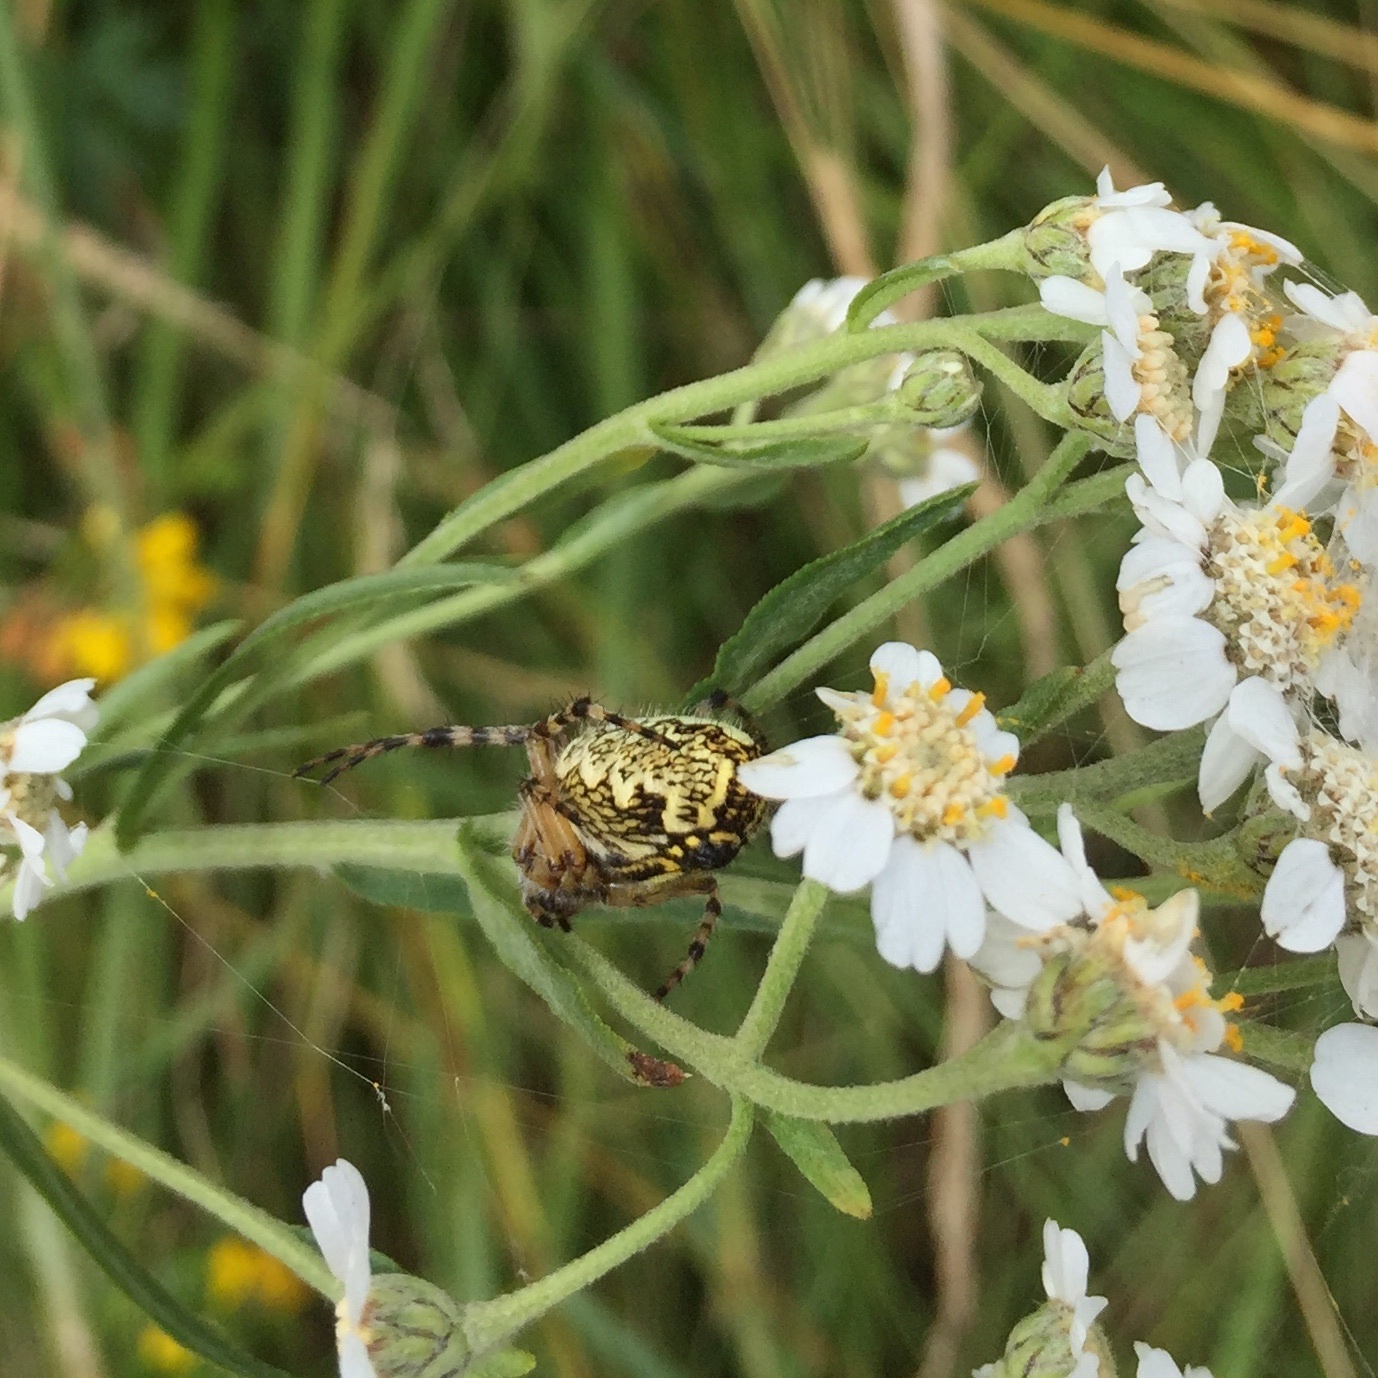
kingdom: Animalia
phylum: Arthropoda
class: Arachnida
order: Araneae
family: Araneidae
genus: Aculepeira
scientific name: Aculepeira ceropegia
